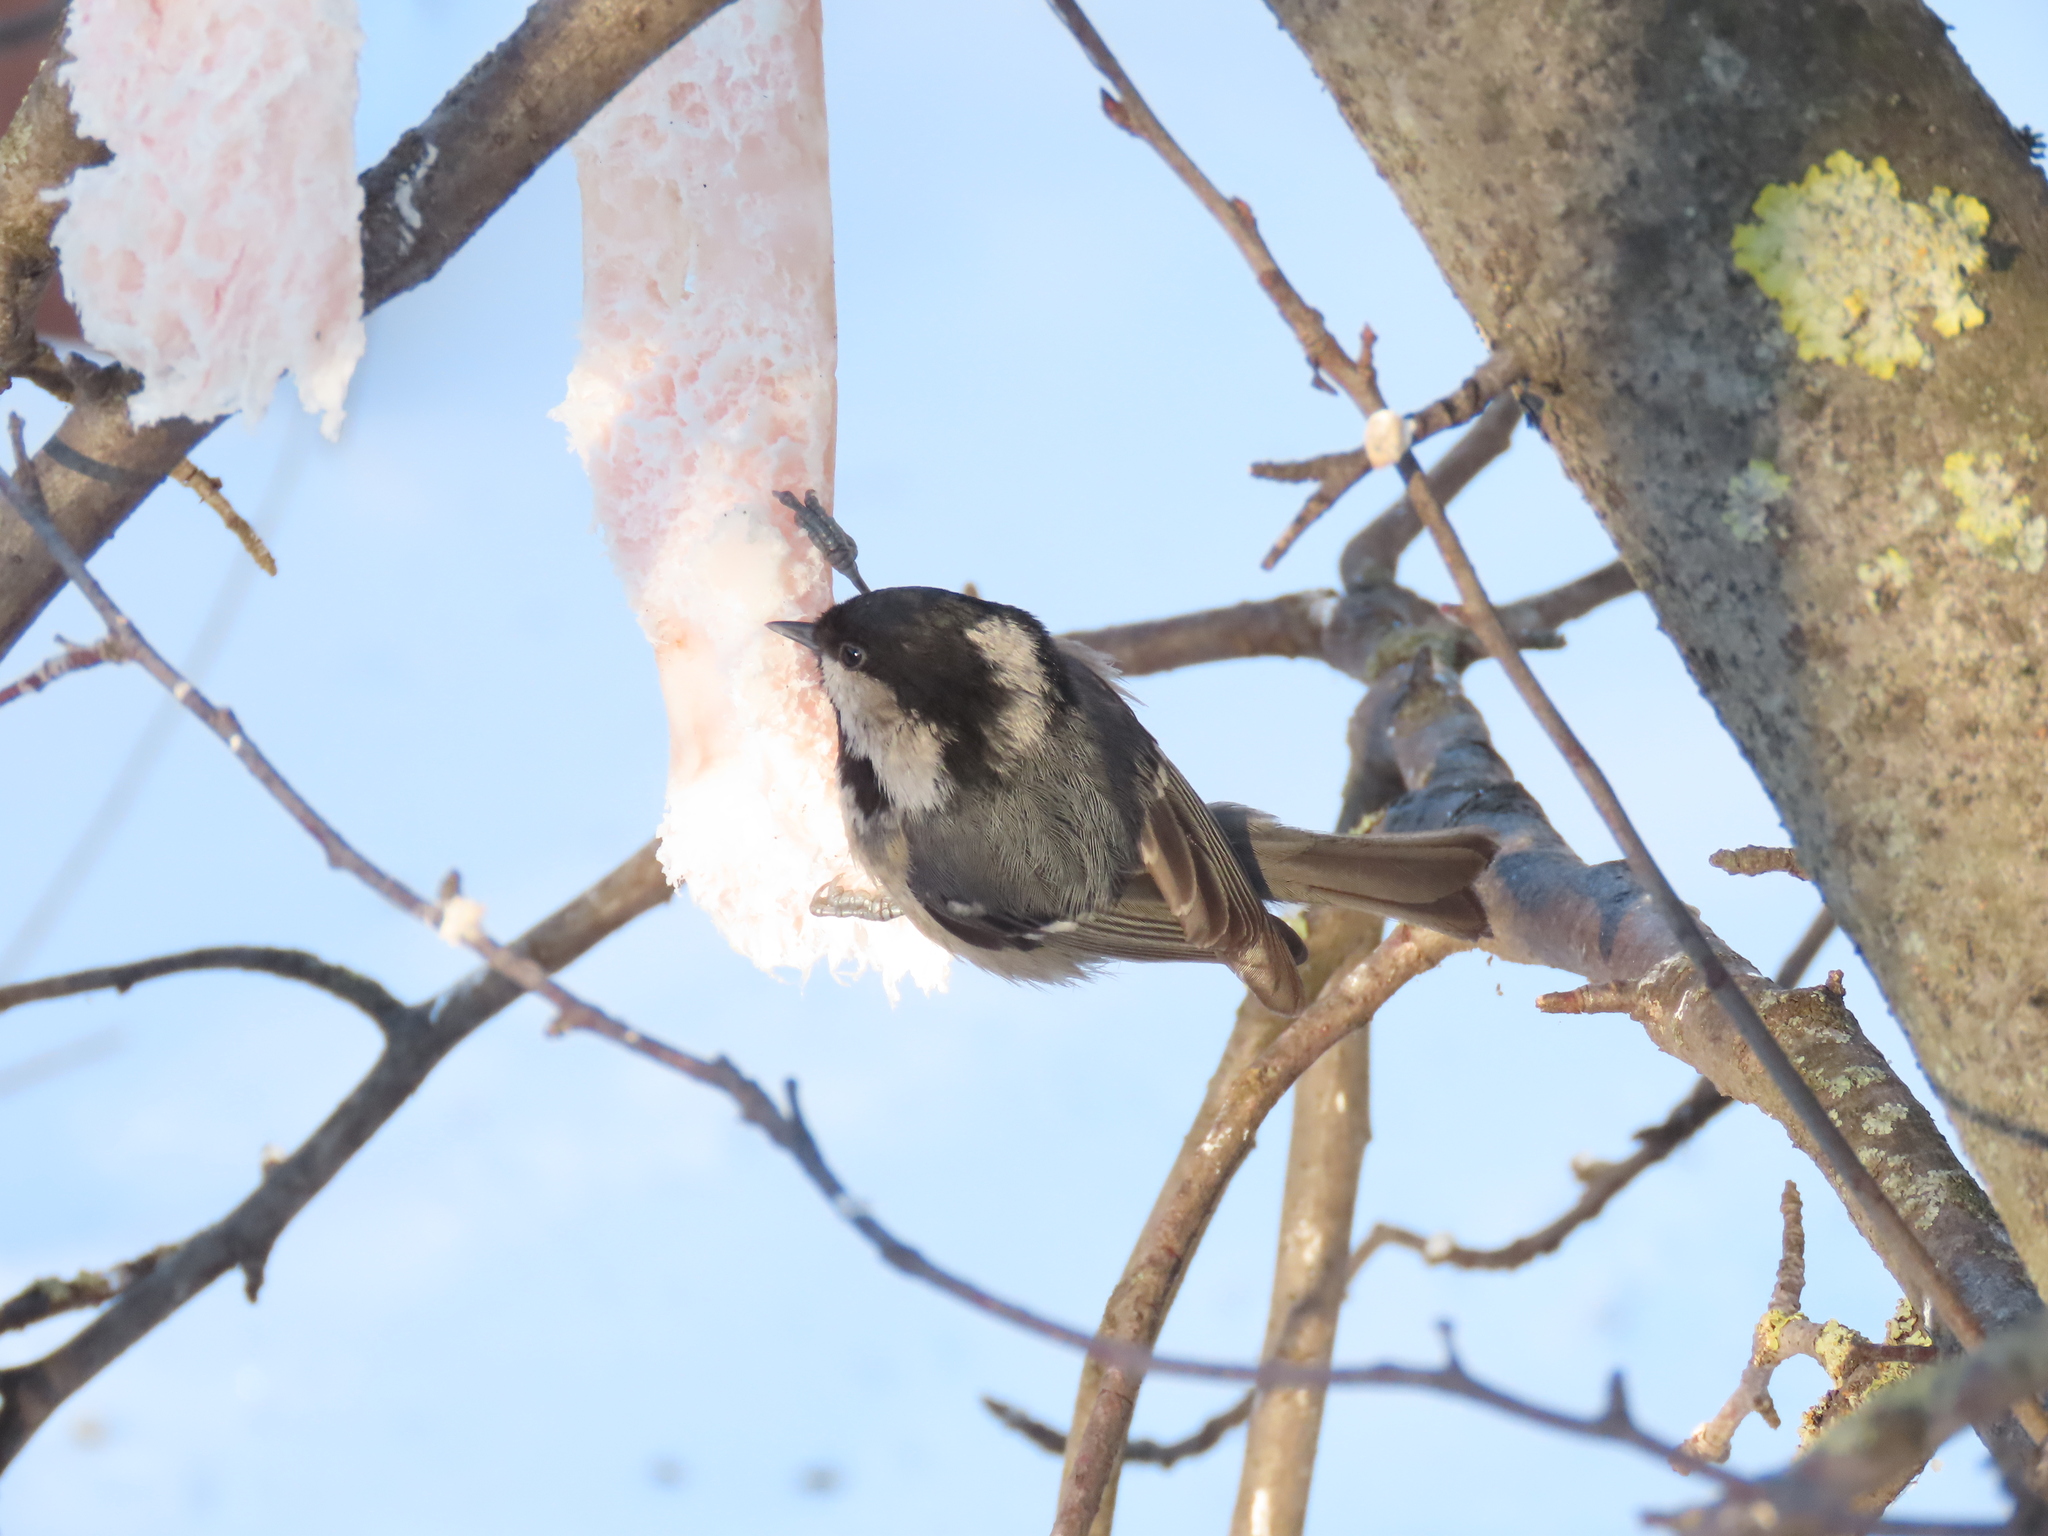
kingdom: Animalia
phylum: Chordata
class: Aves
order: Passeriformes
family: Paridae
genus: Periparus
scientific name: Periparus ater
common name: Coal tit
